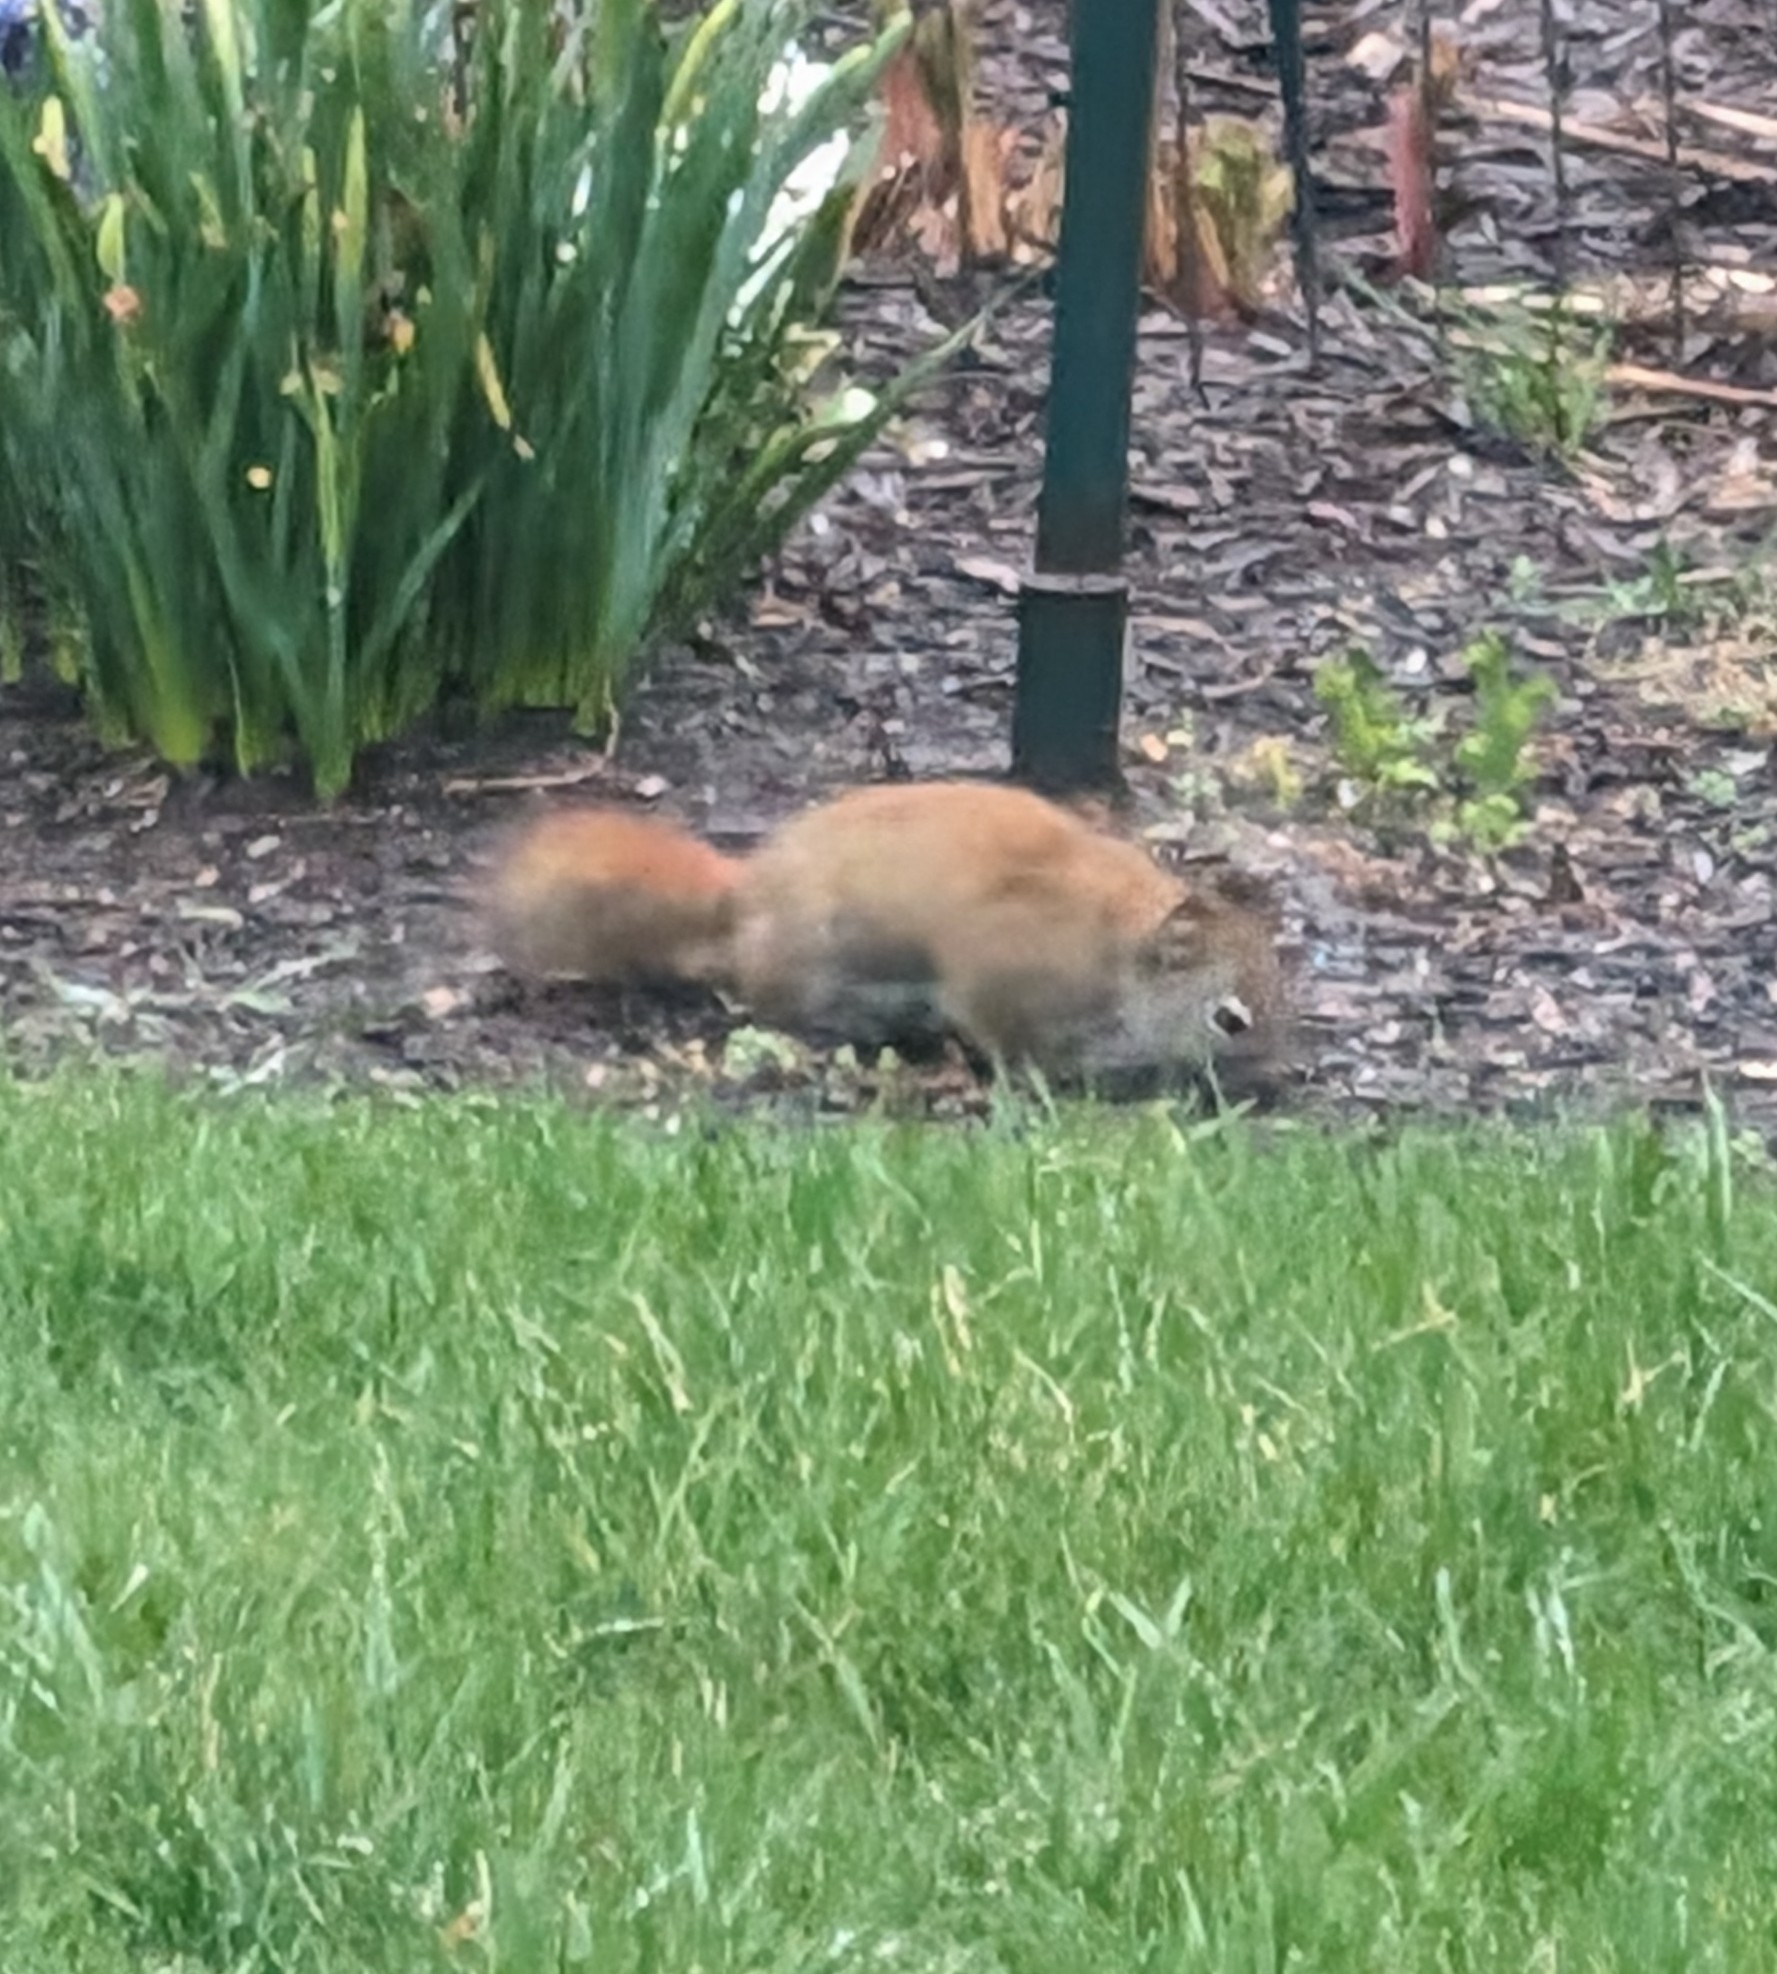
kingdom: Animalia
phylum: Chordata
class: Mammalia
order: Rodentia
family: Sciuridae
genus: Tamiasciurus
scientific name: Tamiasciurus hudsonicus
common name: Red squirrel
